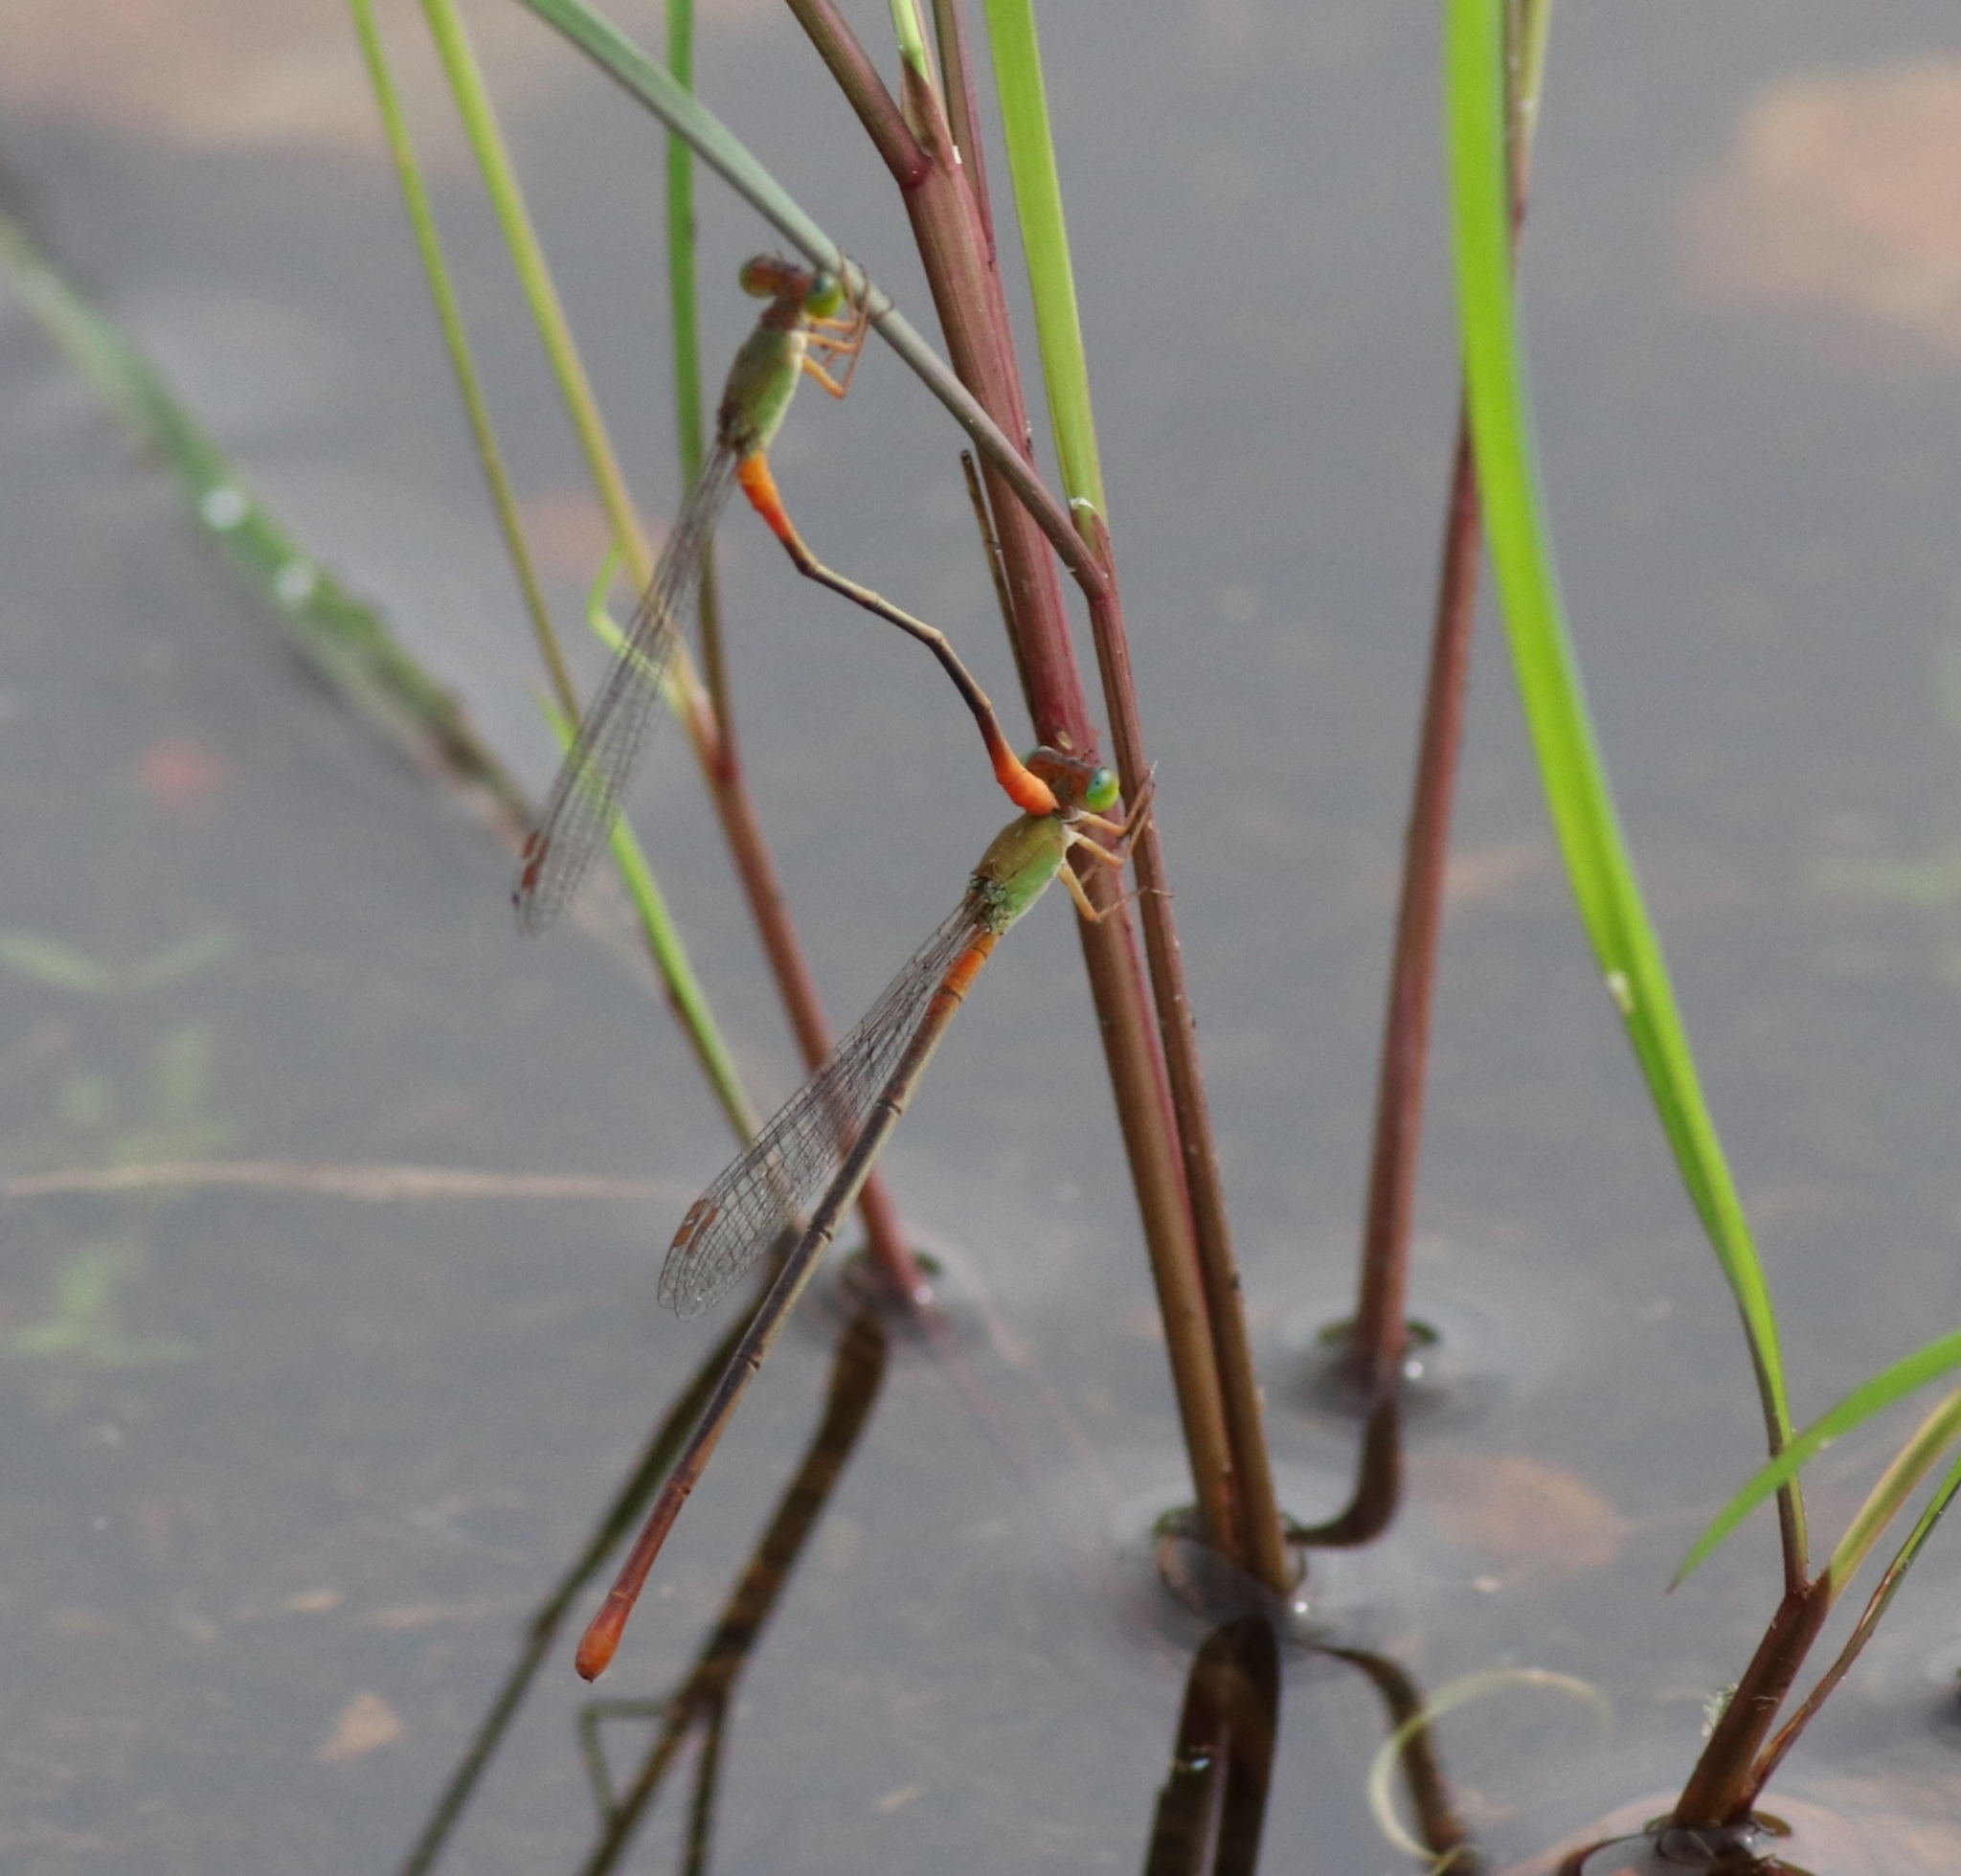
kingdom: Animalia
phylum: Arthropoda
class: Insecta
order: Odonata
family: Coenagrionidae
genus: Ceriagrion
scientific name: Ceriagrion cerinorubellum
